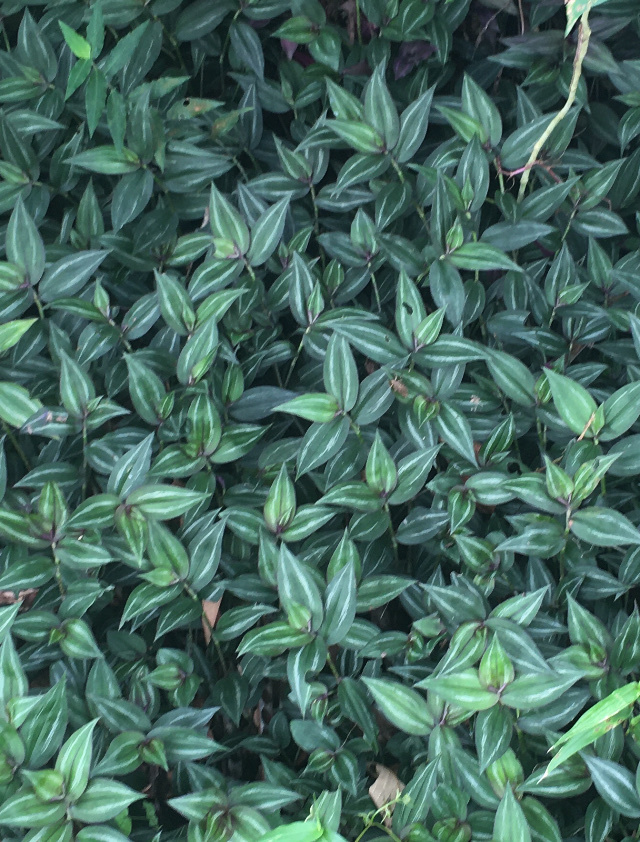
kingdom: Plantae
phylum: Tracheophyta
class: Liliopsida
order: Commelinales
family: Commelinaceae
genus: Tradescantia
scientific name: Tradescantia zebrina
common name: Inchplant
